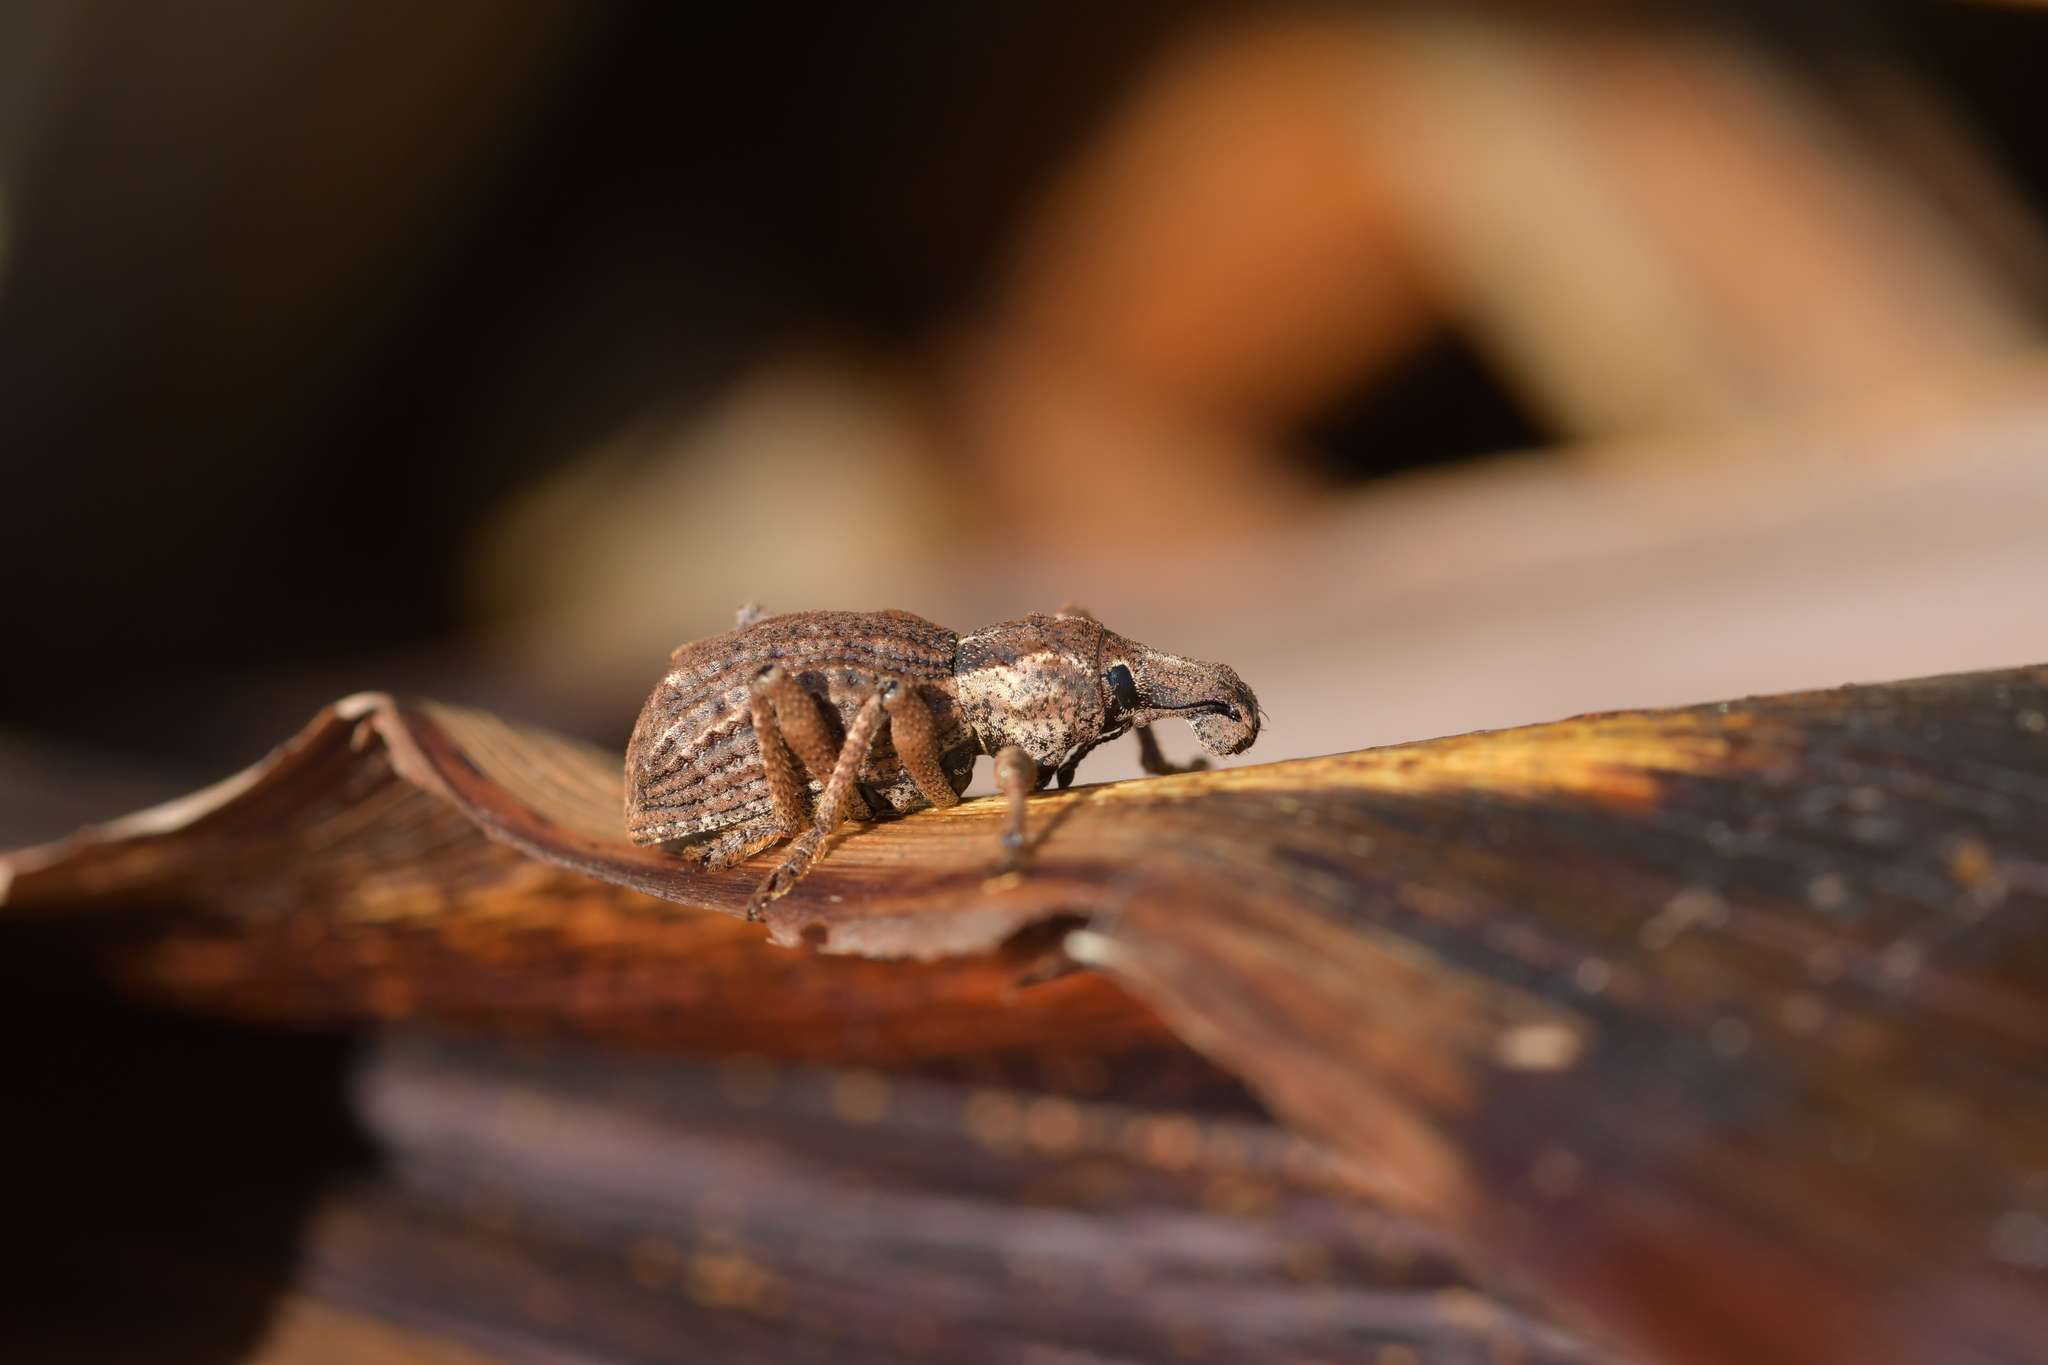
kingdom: Animalia
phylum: Arthropoda
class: Insecta
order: Coleoptera
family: Curculionidae
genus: Anagotus
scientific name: Anagotus fairburni
